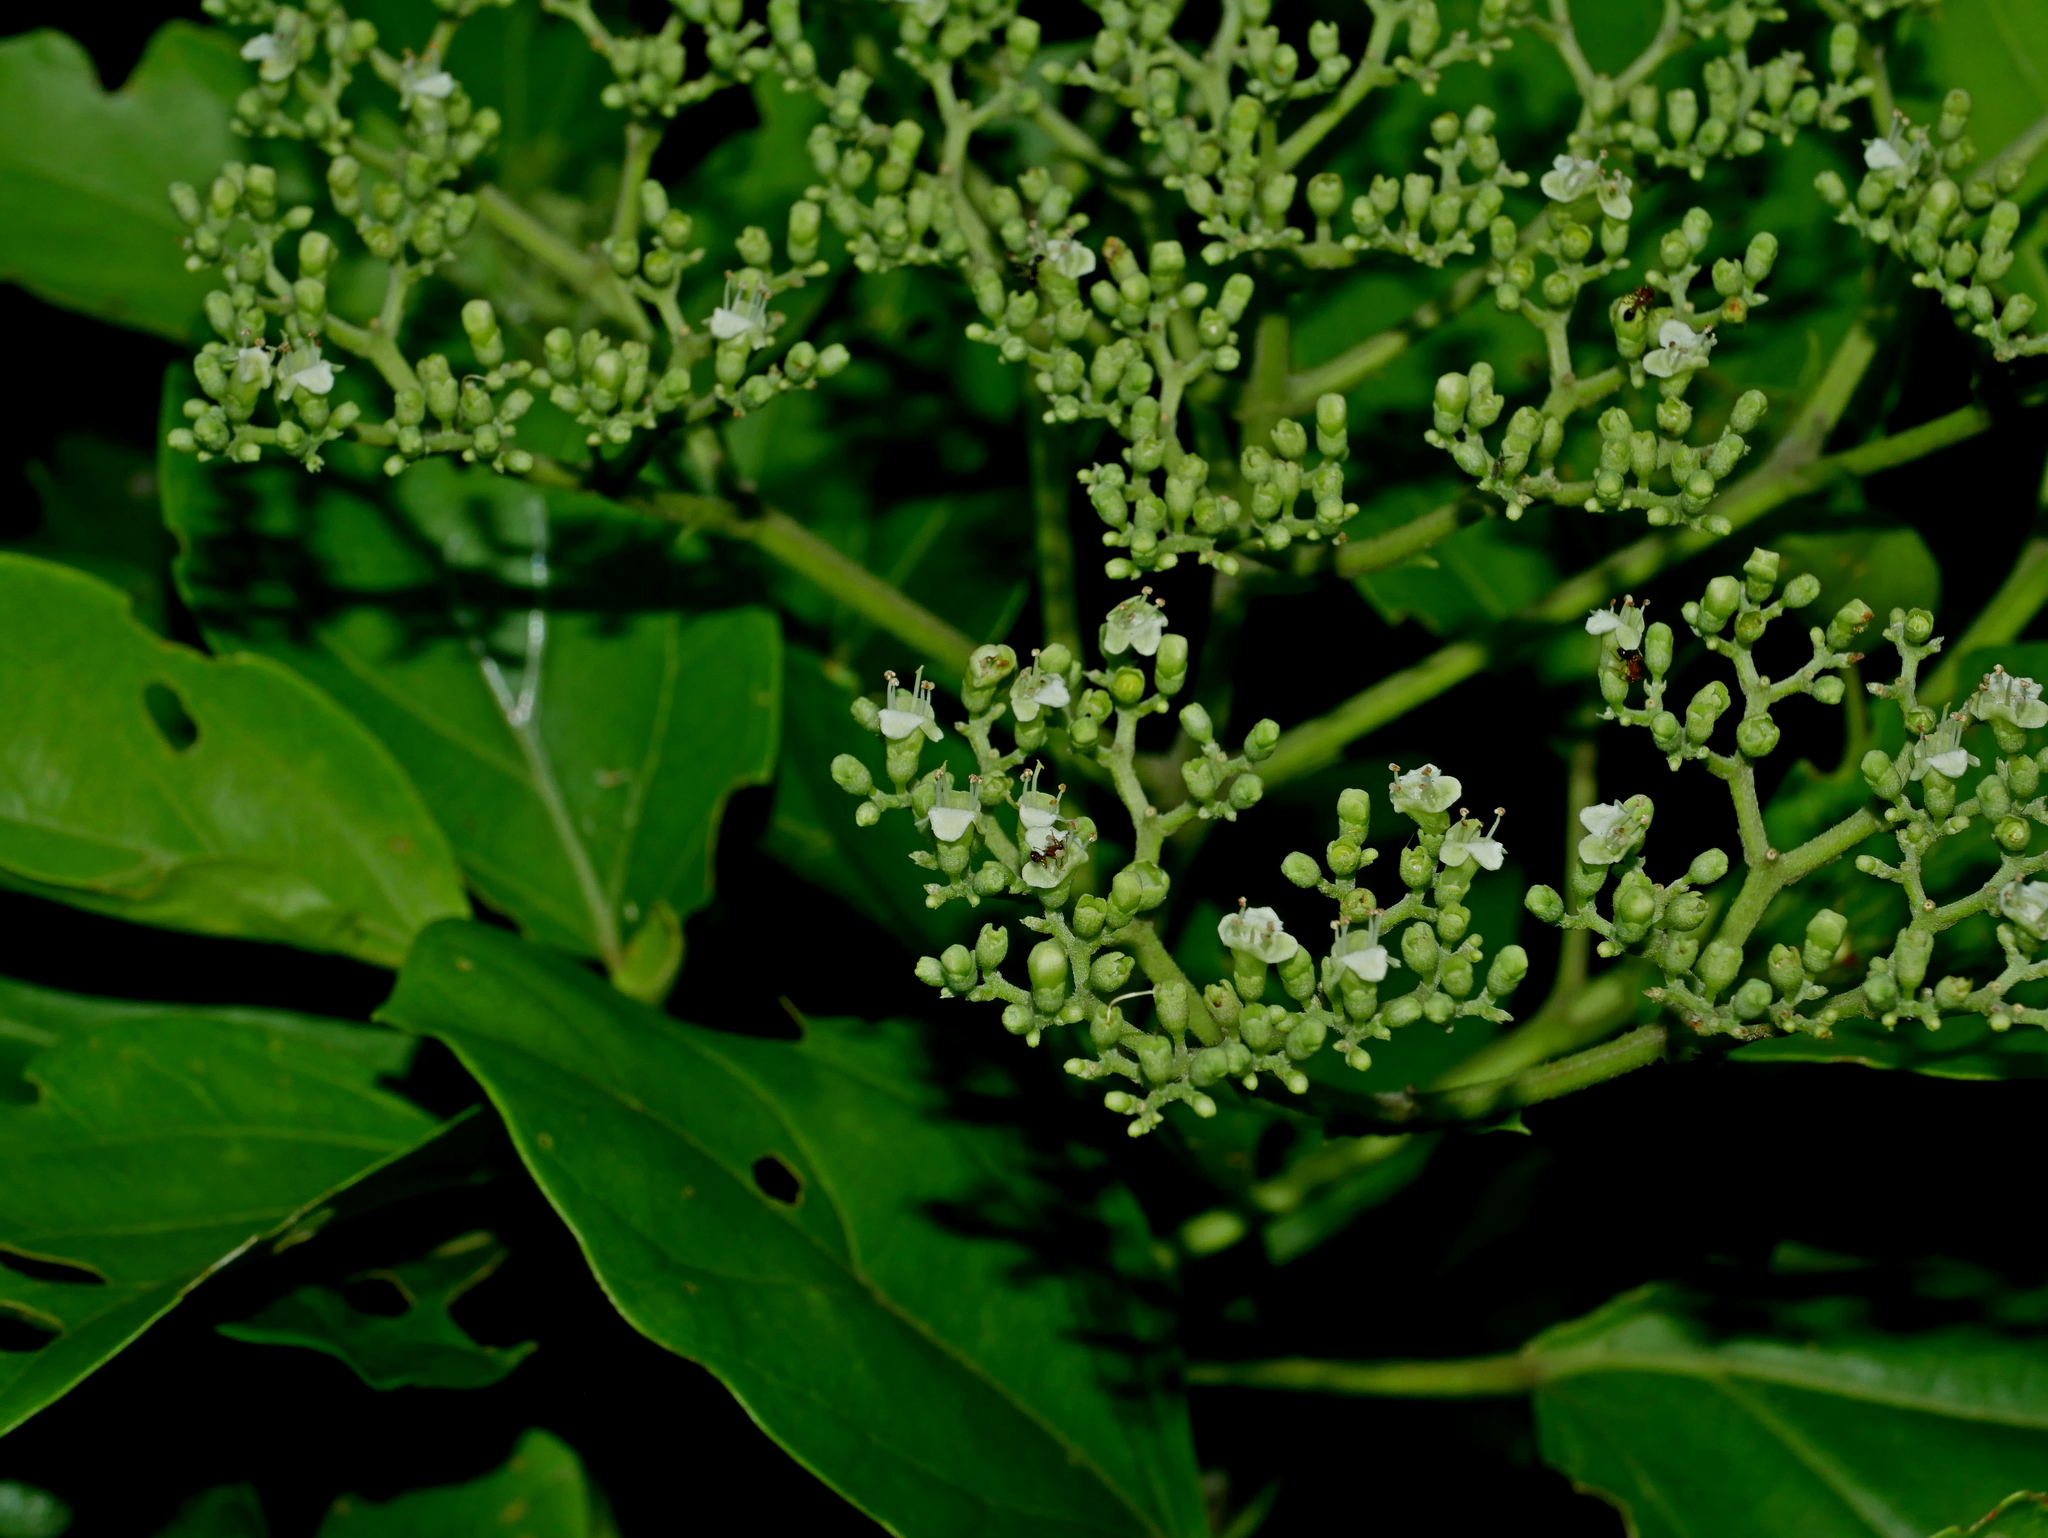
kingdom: Plantae
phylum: Tracheophyta
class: Magnoliopsida
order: Lamiales
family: Lamiaceae
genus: Premna
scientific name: Premna serratifolia
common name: Bastard guelder
